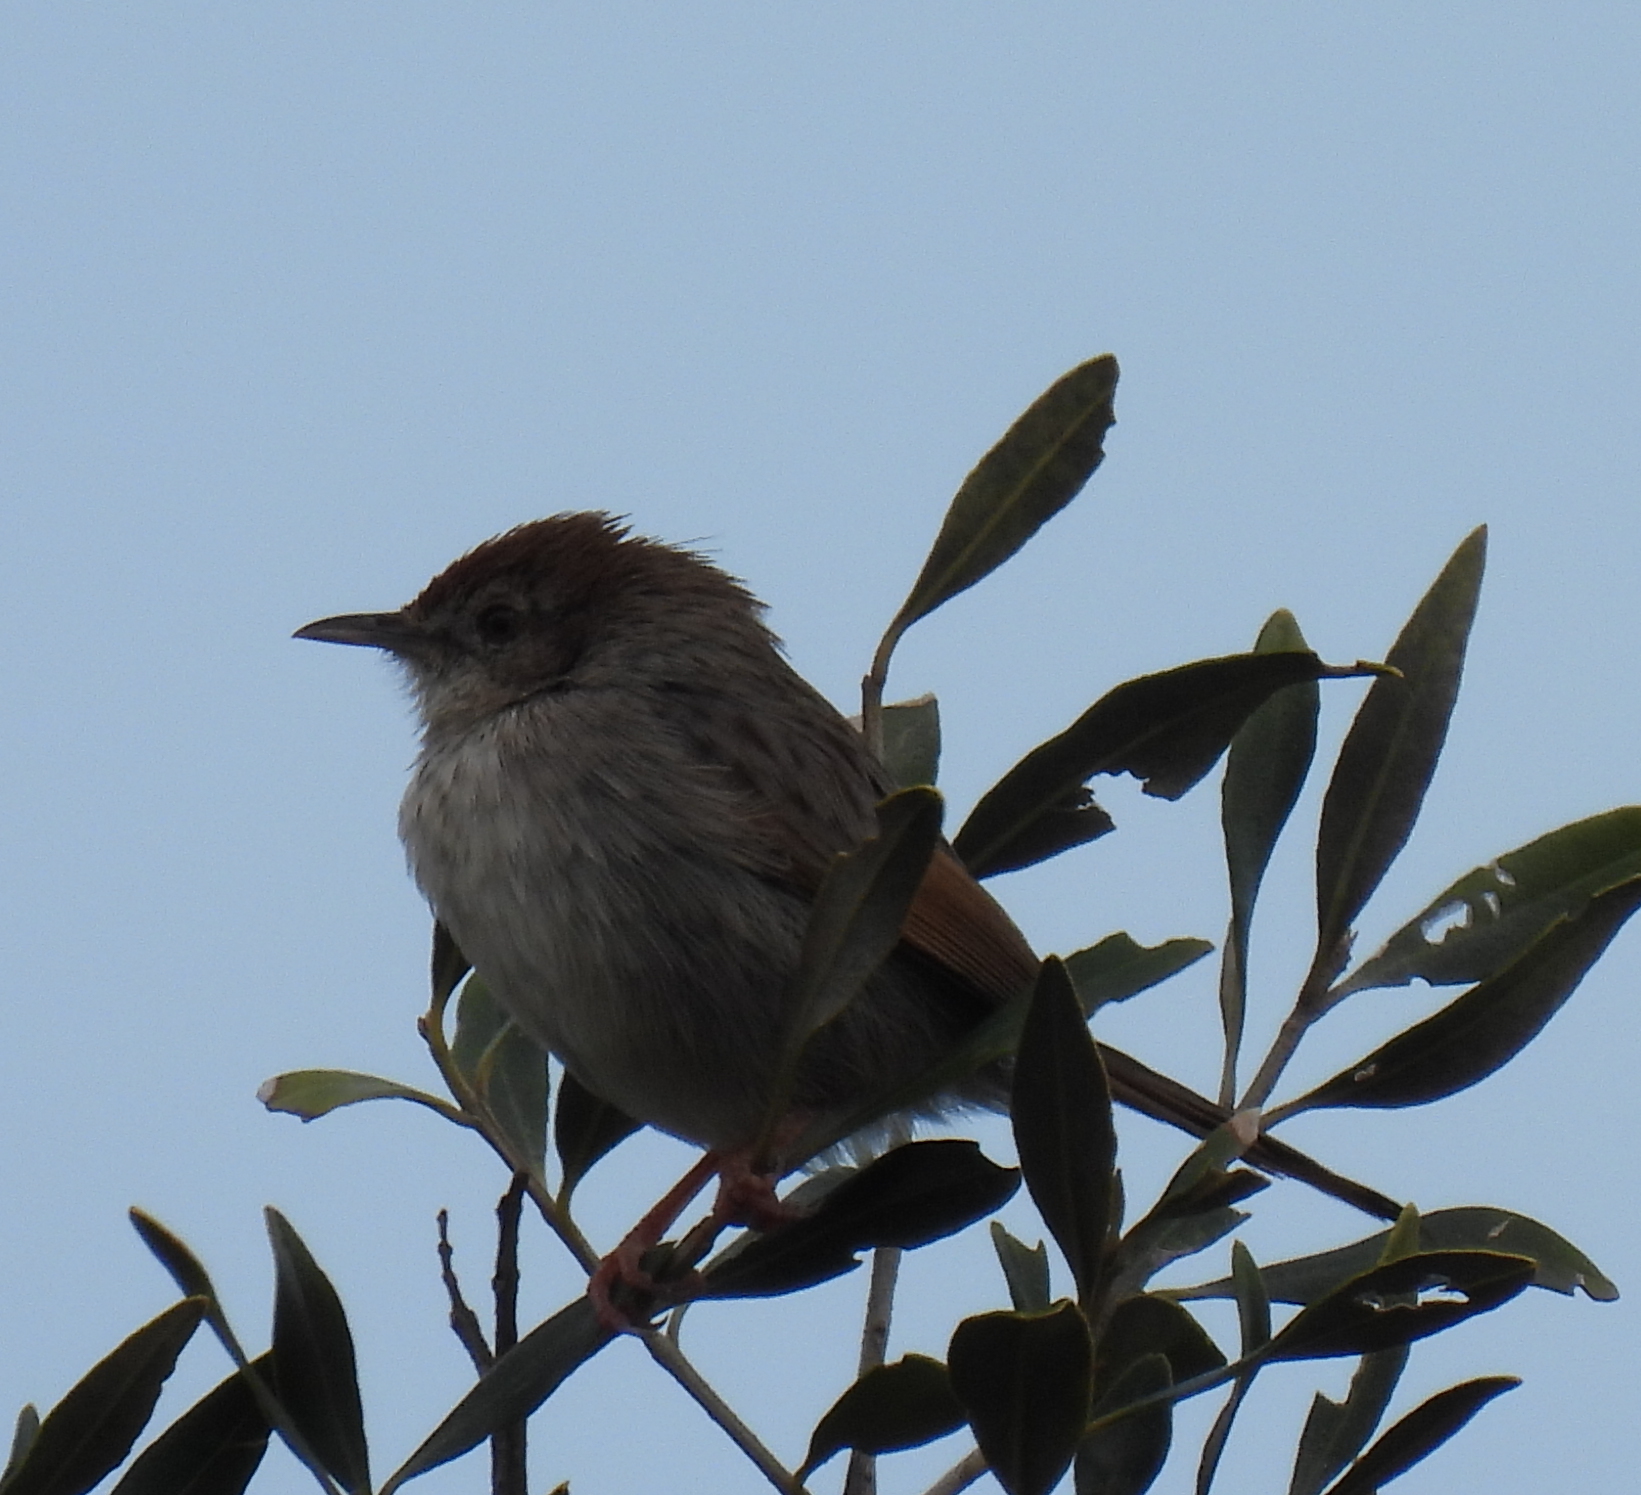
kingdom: Animalia
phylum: Chordata
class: Aves
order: Passeriformes
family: Cisticolidae
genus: Cisticola
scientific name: Cisticola subruficapilla
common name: Grey-backed cisticola
